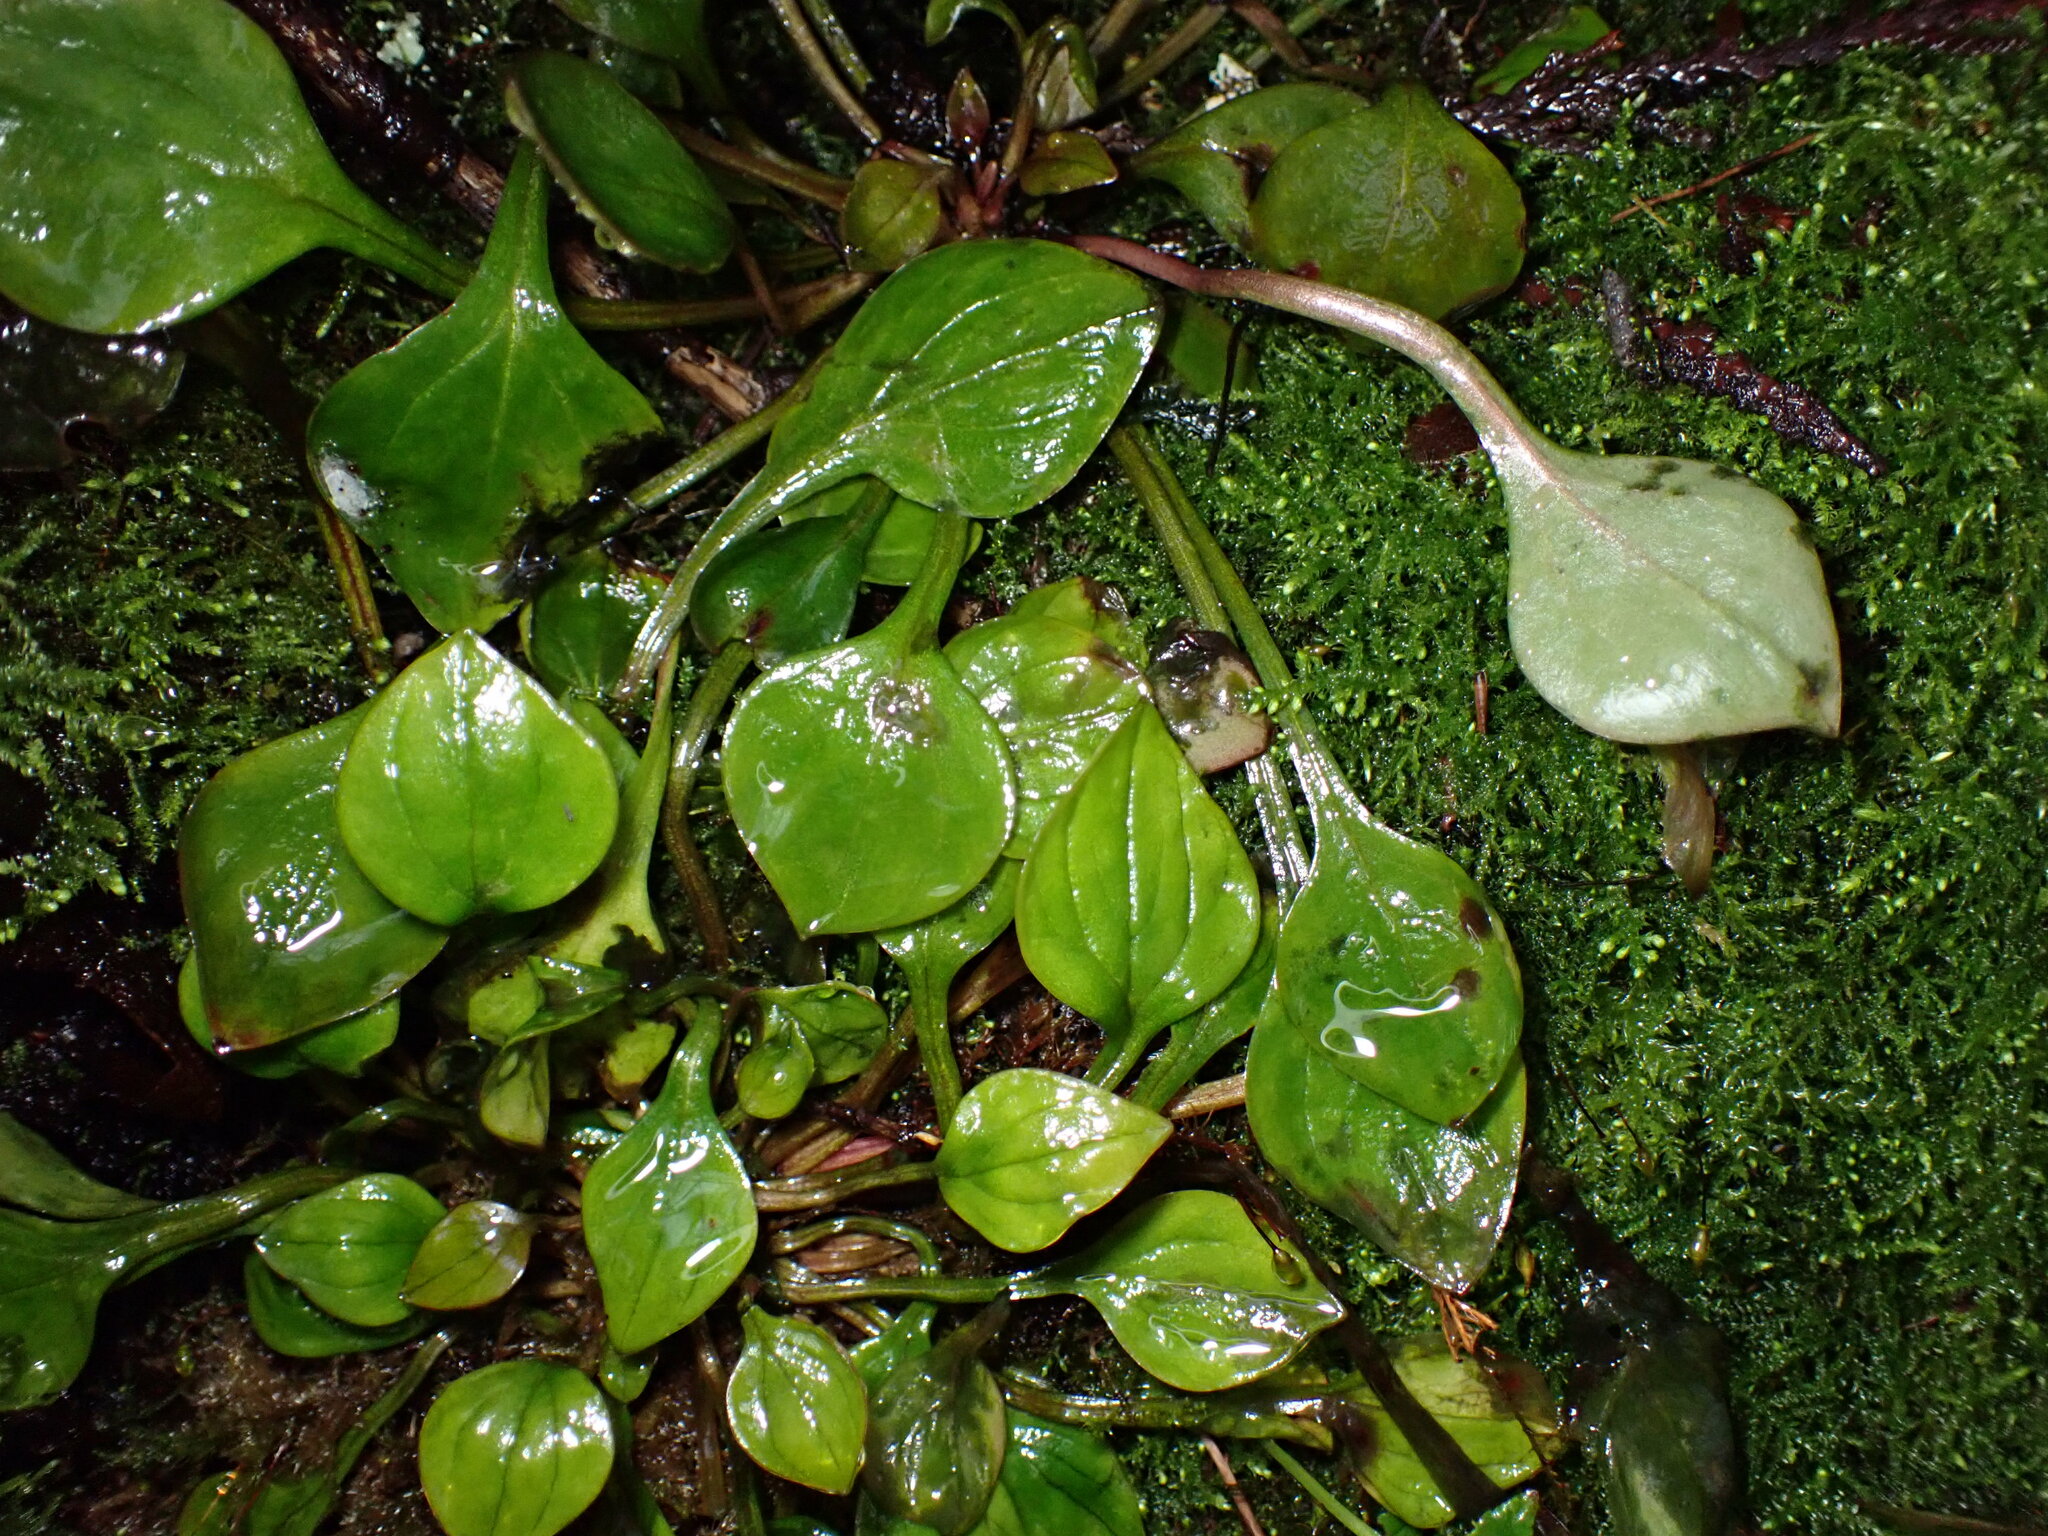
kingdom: Plantae
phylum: Tracheophyta
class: Magnoliopsida
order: Caryophyllales
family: Montiaceae
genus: Claytonia
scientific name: Claytonia sibirica
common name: Pink purslane
